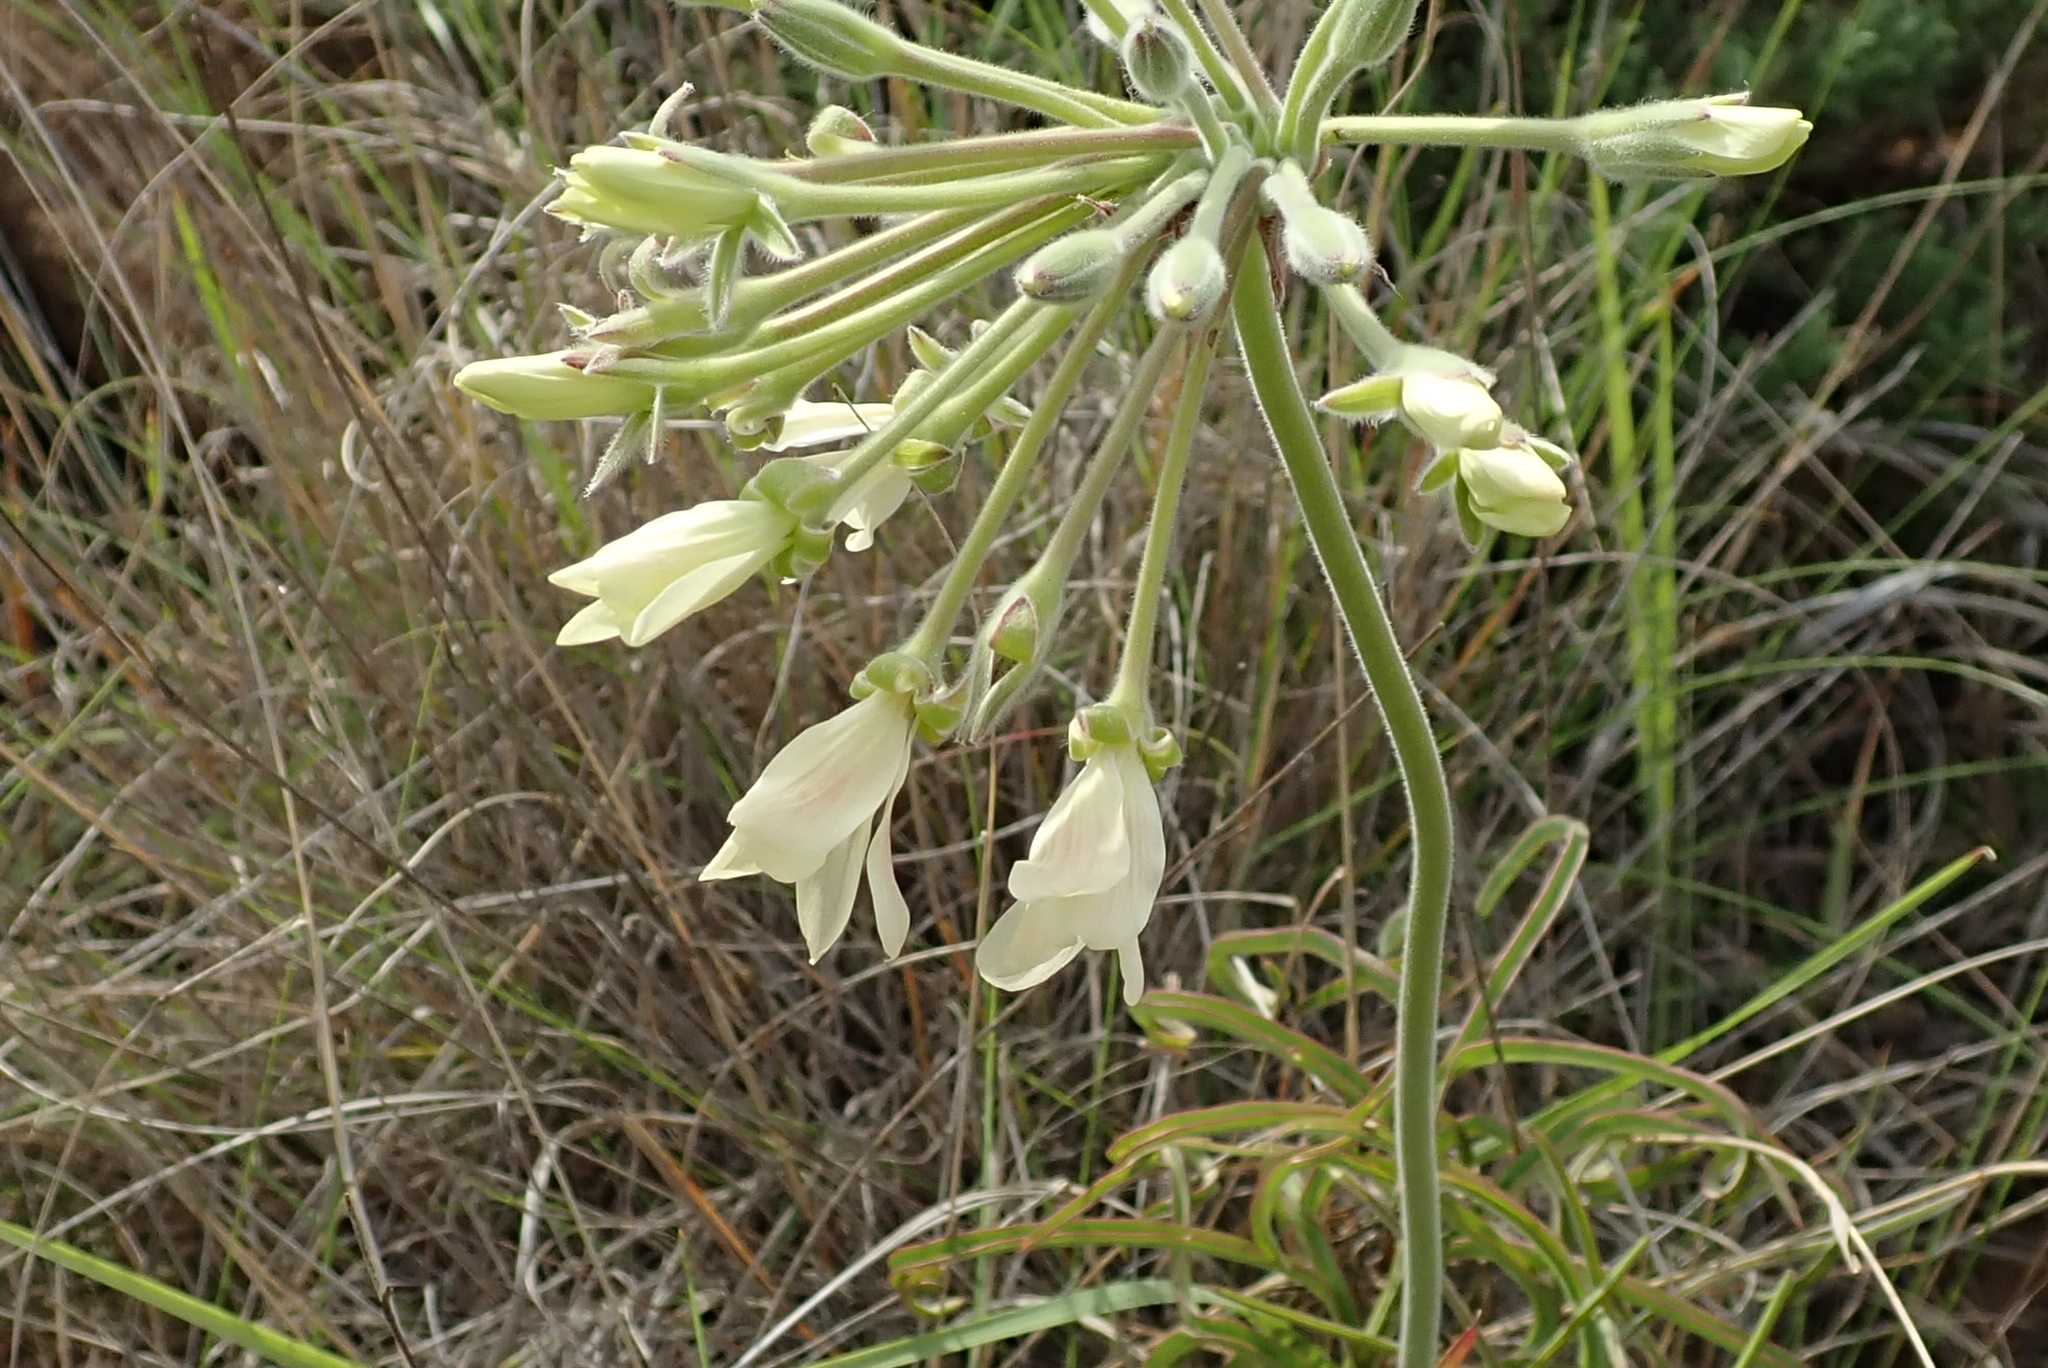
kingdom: Plantae
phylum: Tracheophyta
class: Magnoliopsida
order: Geraniales
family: Geraniaceae
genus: Pelargonium
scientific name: Pelargonium luridum
